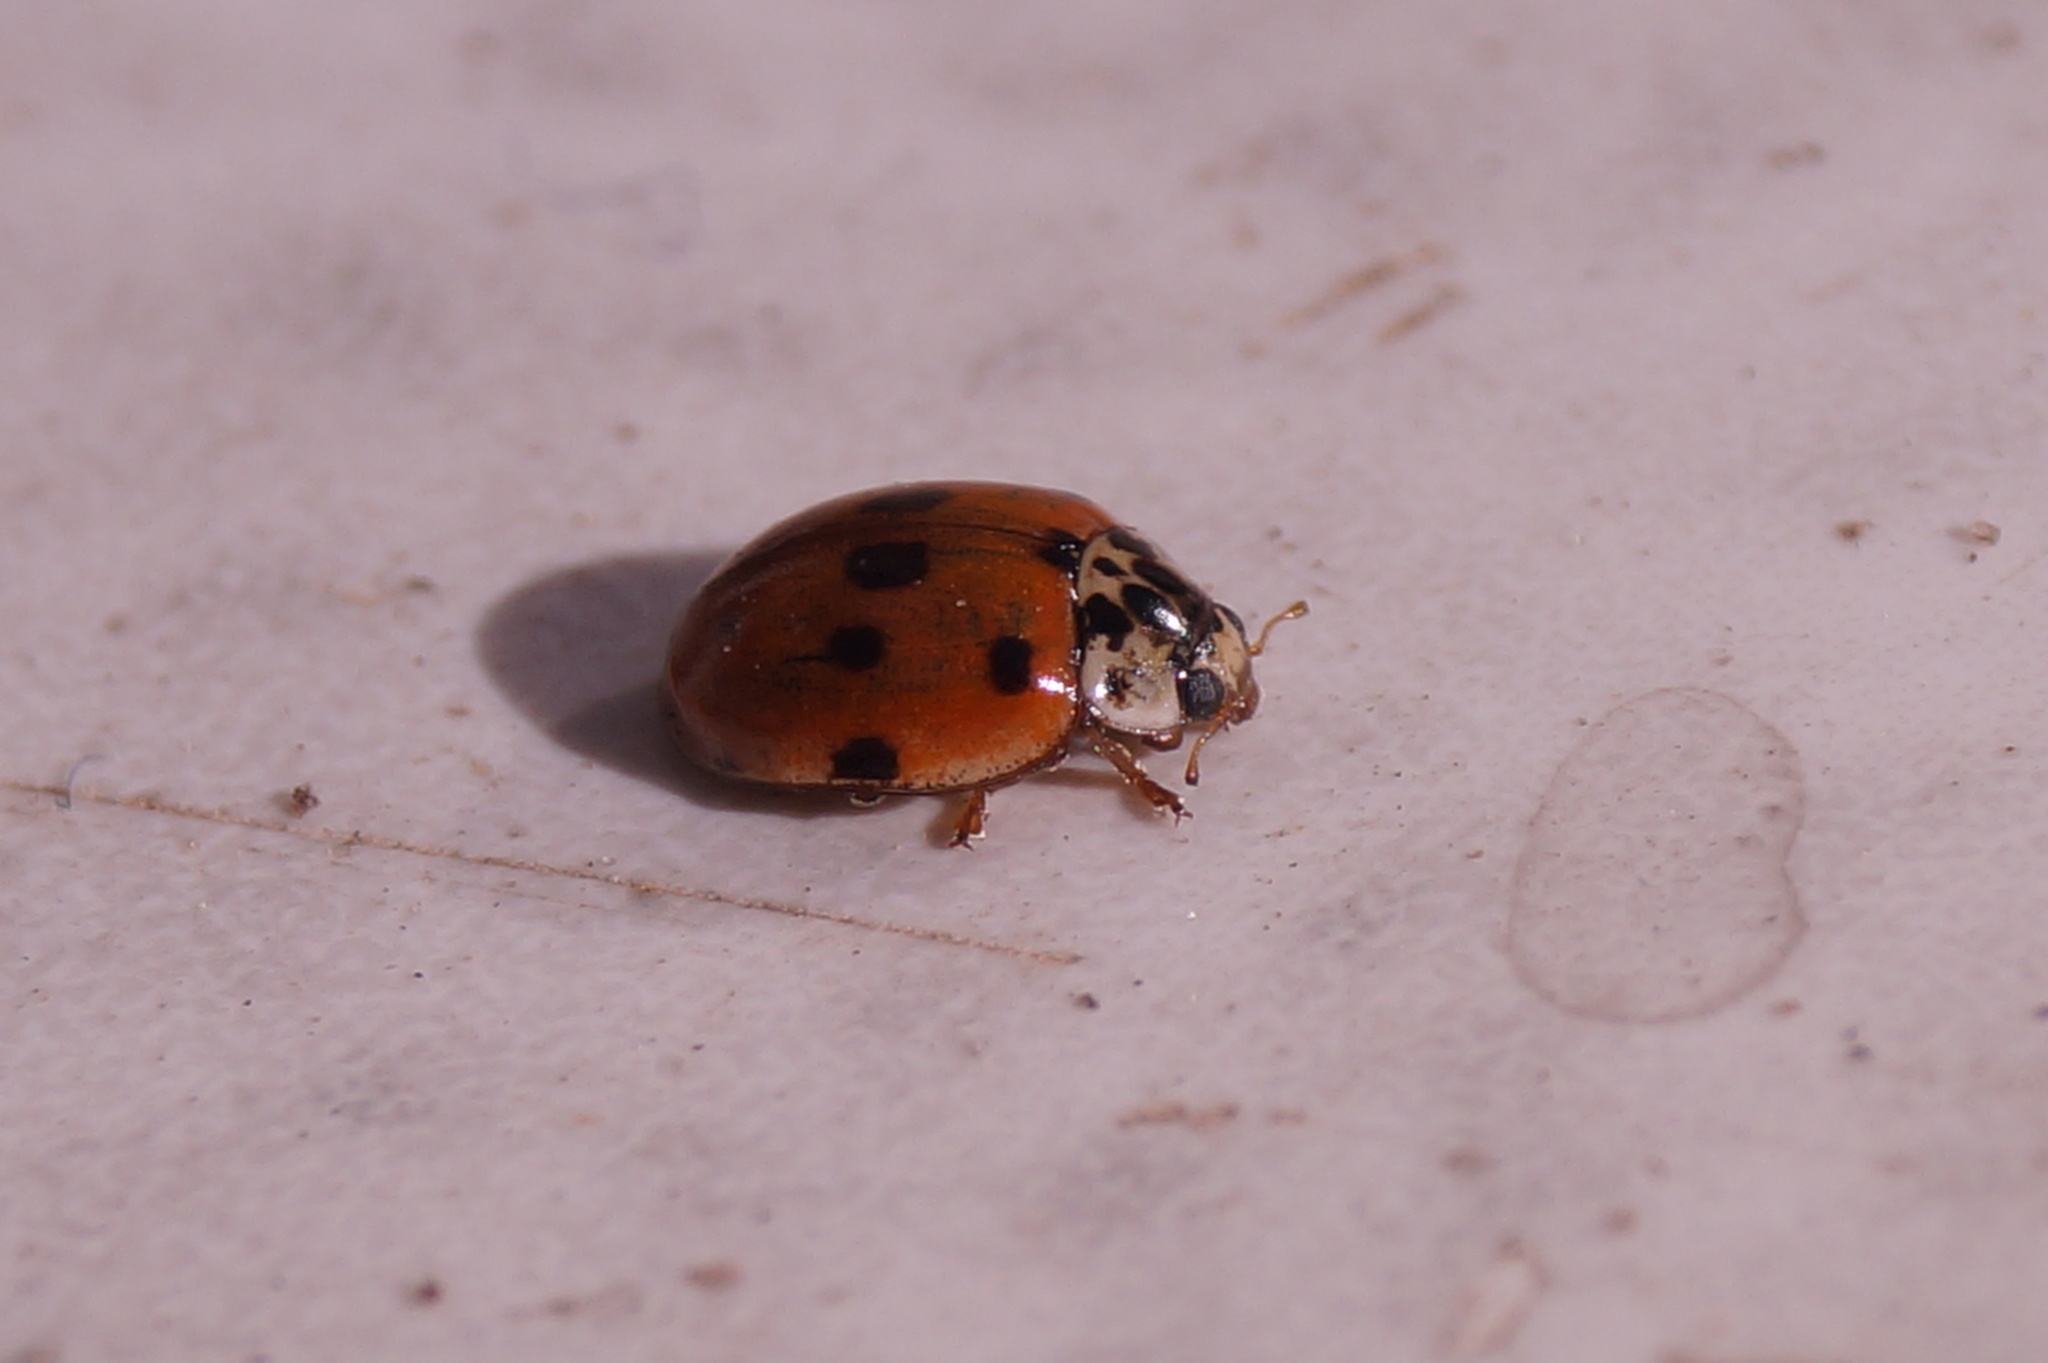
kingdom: Animalia
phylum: Arthropoda
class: Insecta
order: Coleoptera
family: Coccinellidae
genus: Adalia
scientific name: Adalia decempunctata
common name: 10-spot ladybird
